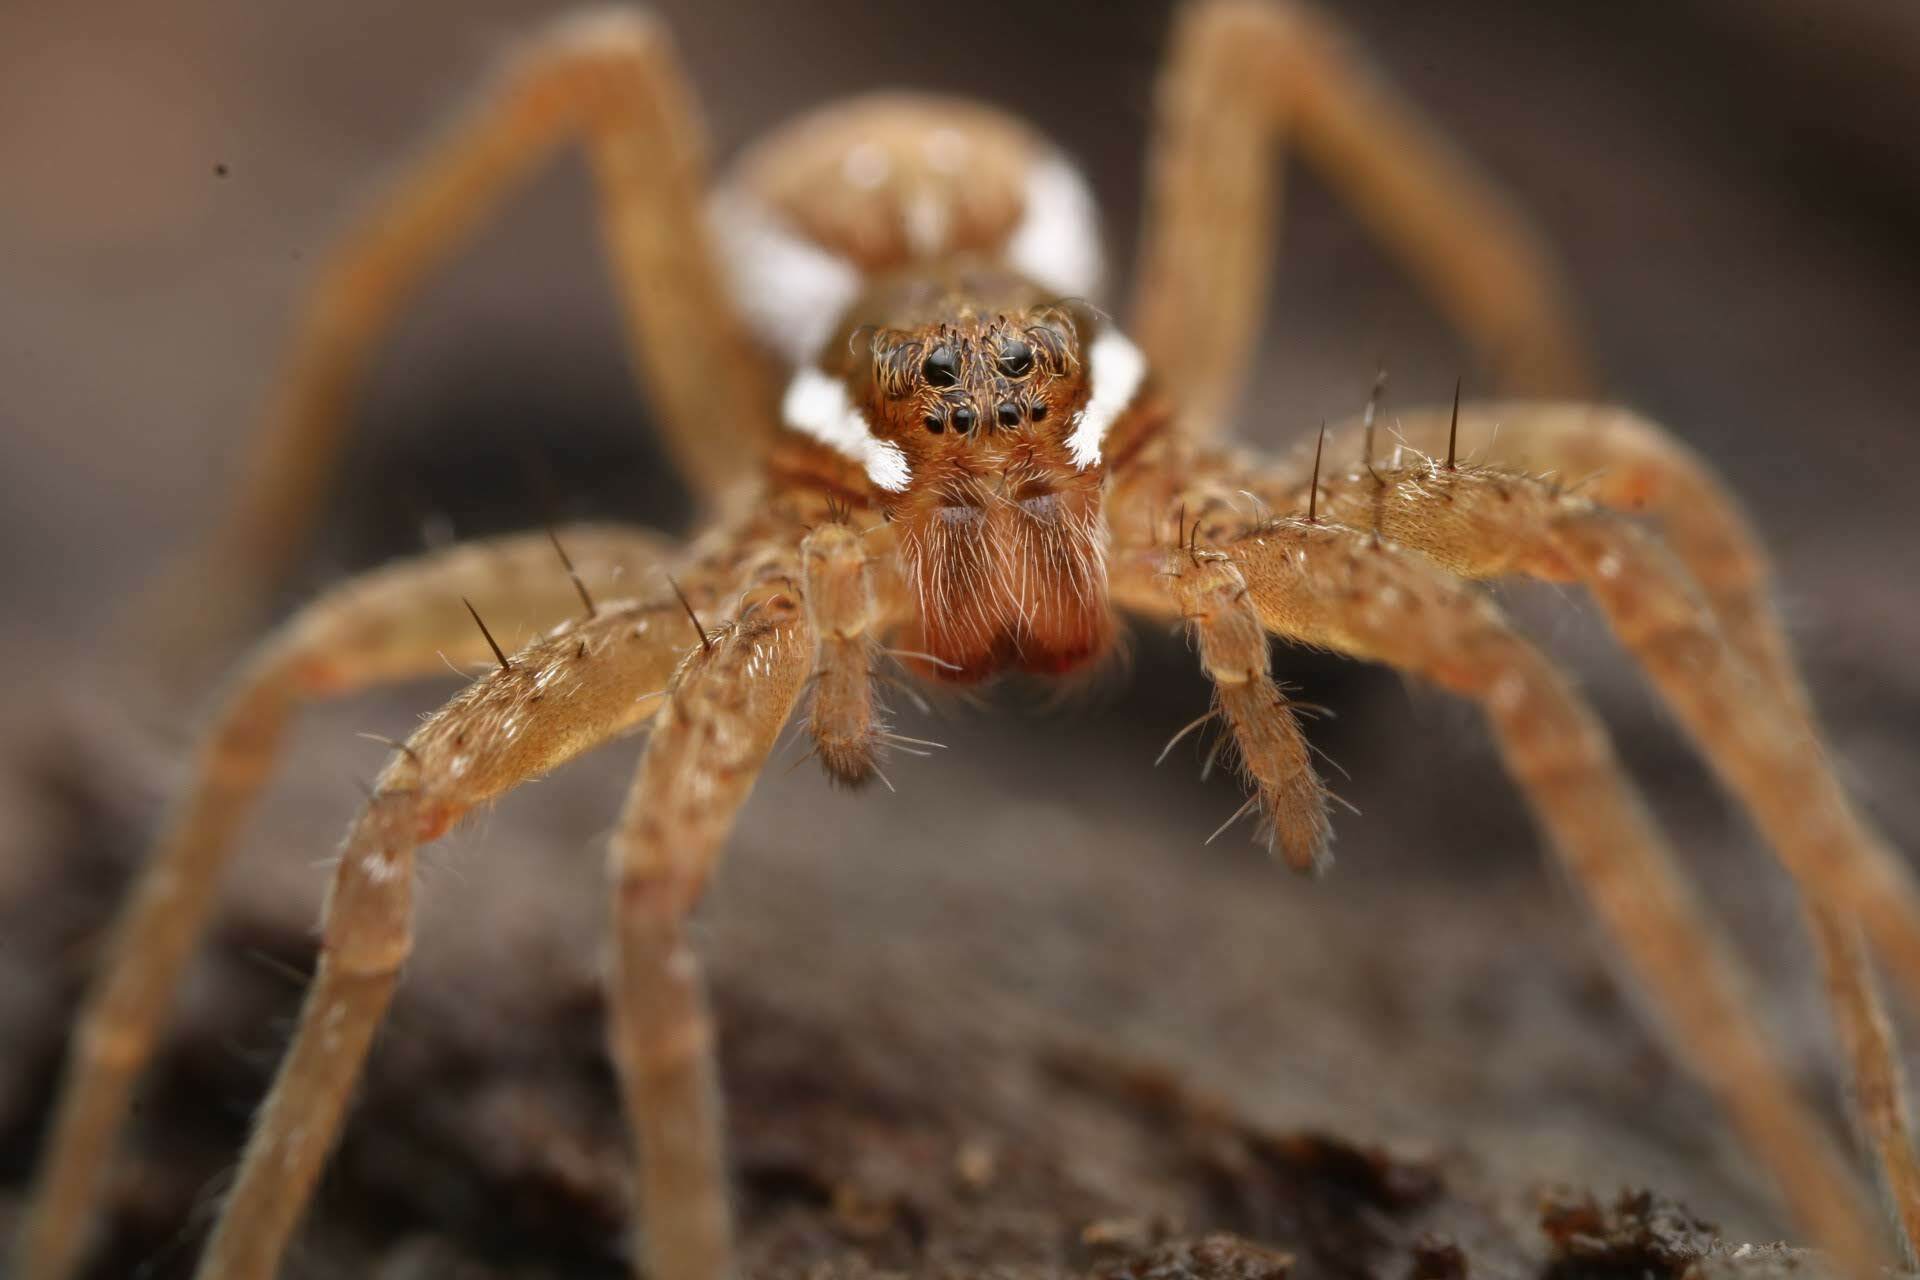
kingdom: Animalia
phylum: Arthropoda
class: Arachnida
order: Araneae
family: Pisauridae
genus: Dolomedes
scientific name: Dolomedes triton
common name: Six-spotted fishing spider
